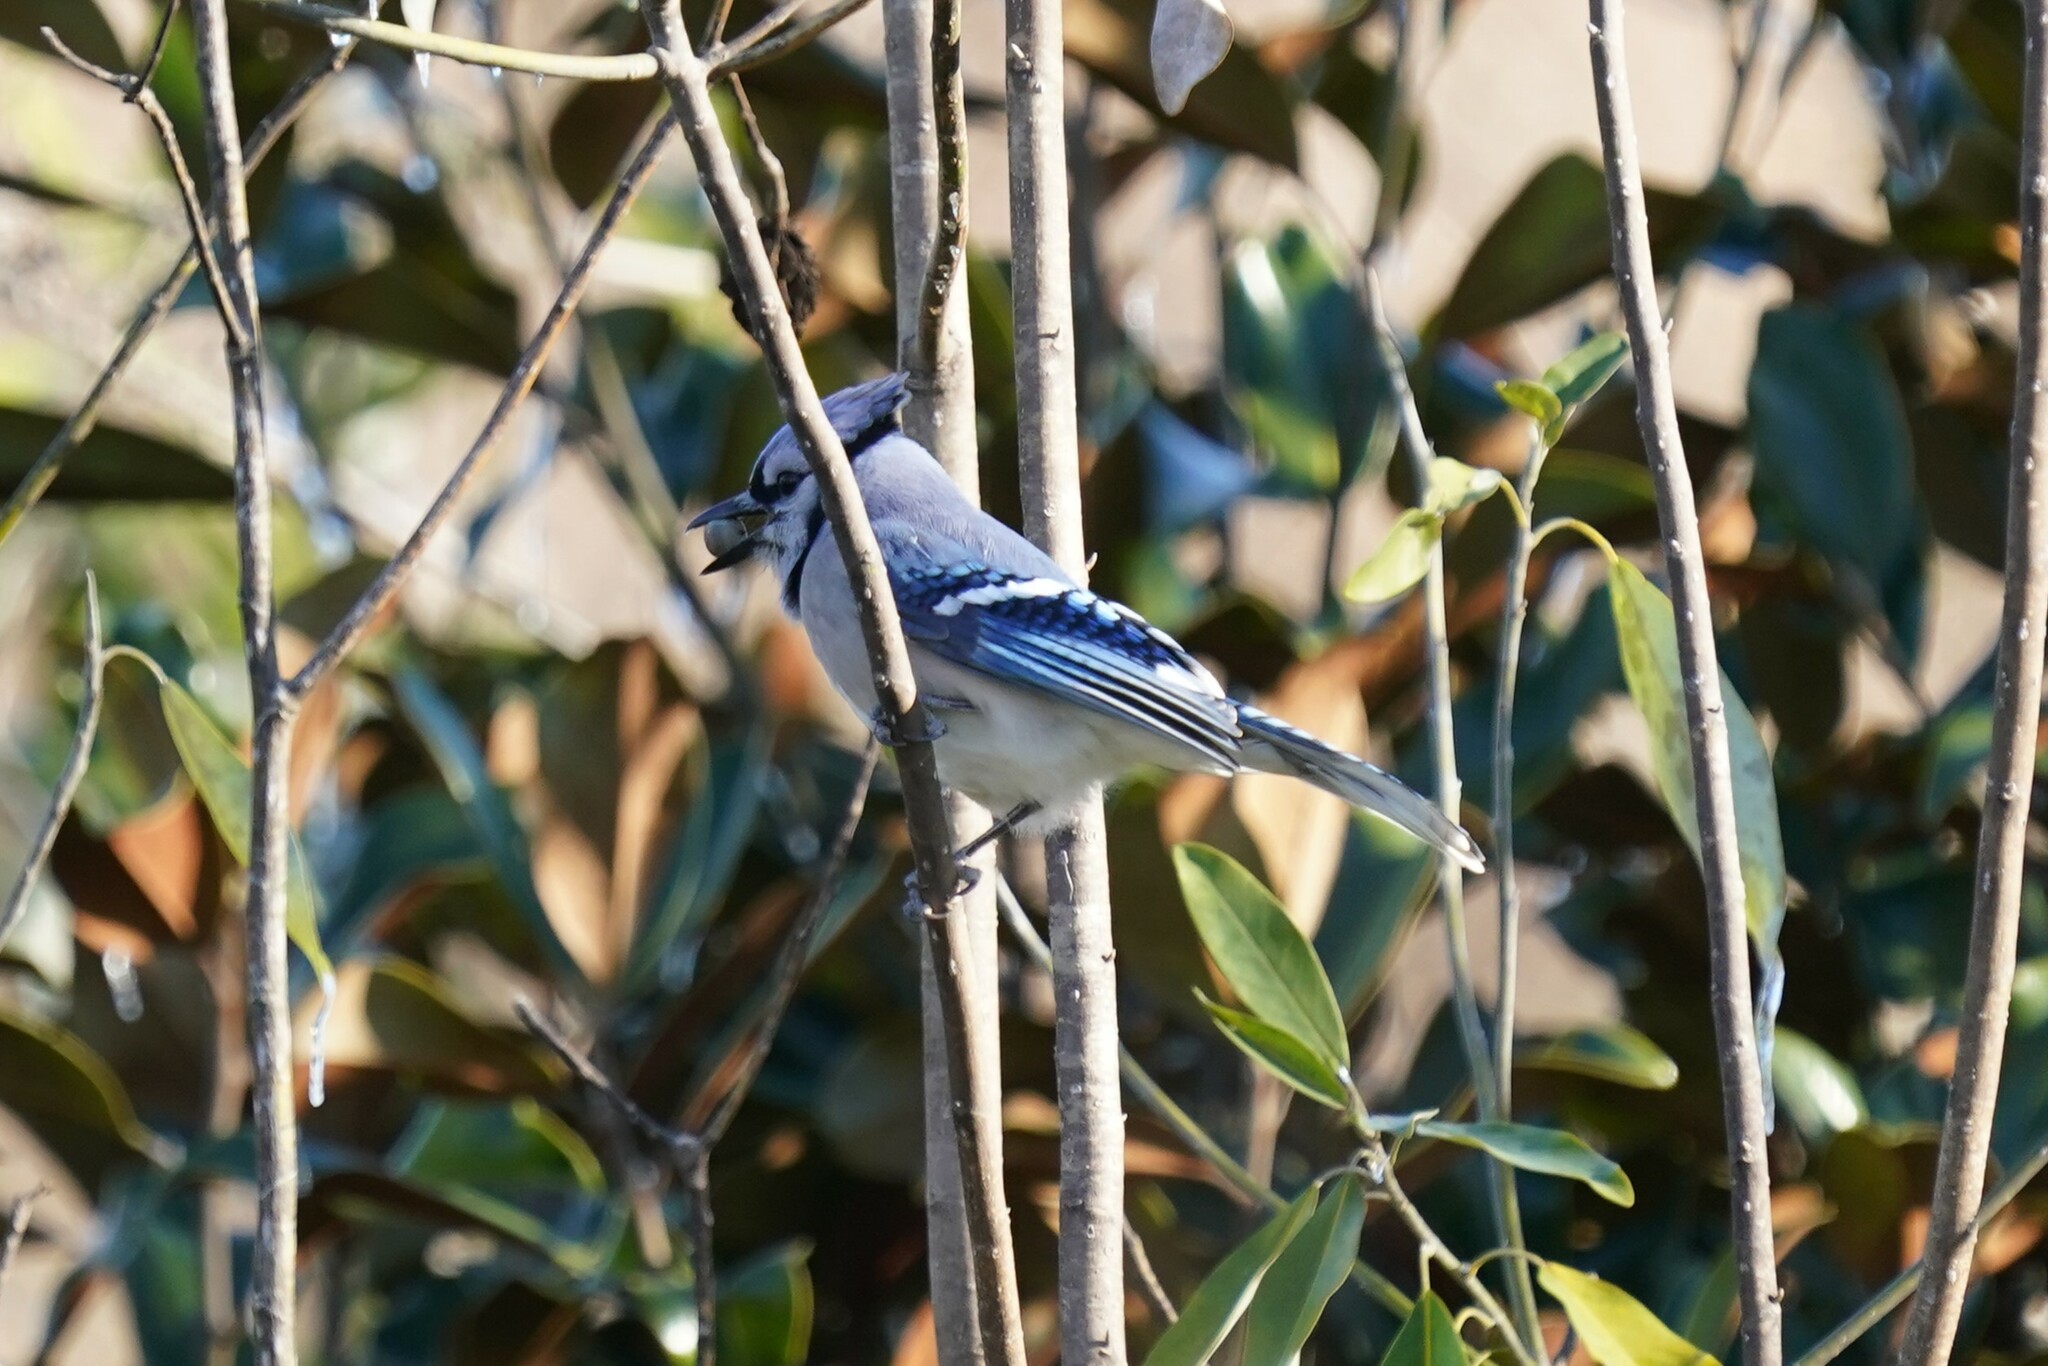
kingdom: Animalia
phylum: Chordata
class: Aves
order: Passeriformes
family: Corvidae
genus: Cyanocitta
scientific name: Cyanocitta cristata
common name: Blue jay
